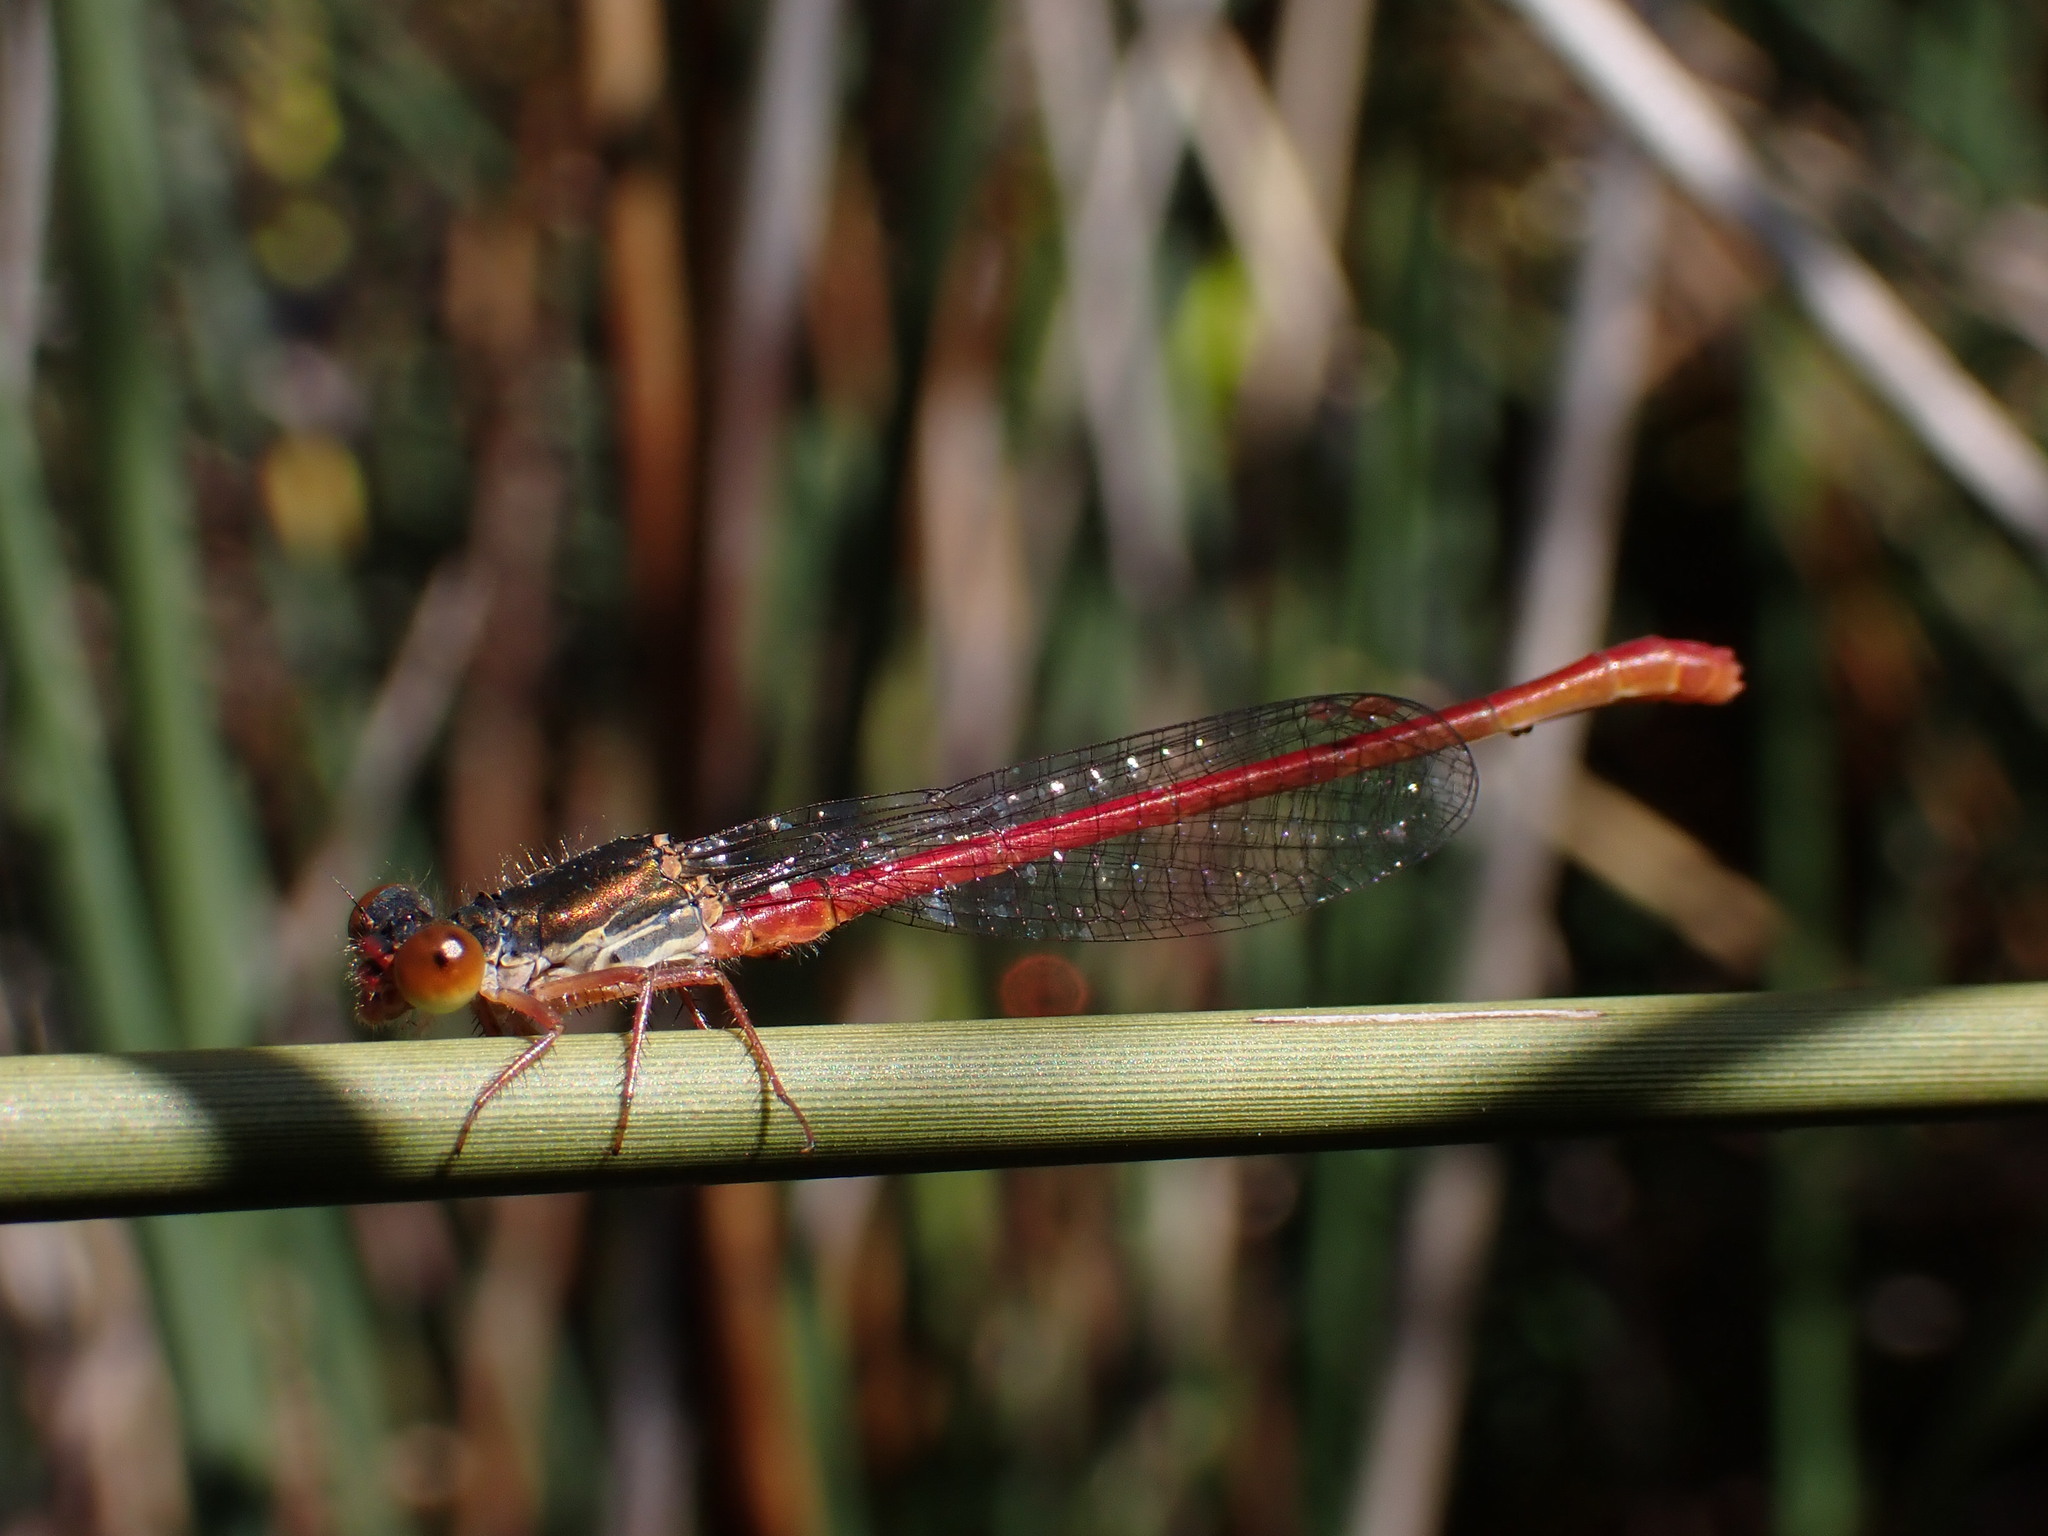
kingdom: Animalia
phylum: Arthropoda
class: Insecta
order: Odonata
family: Coenagrionidae
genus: Ceriagrion
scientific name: Ceriagrion tenellum
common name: Small red damselfly
